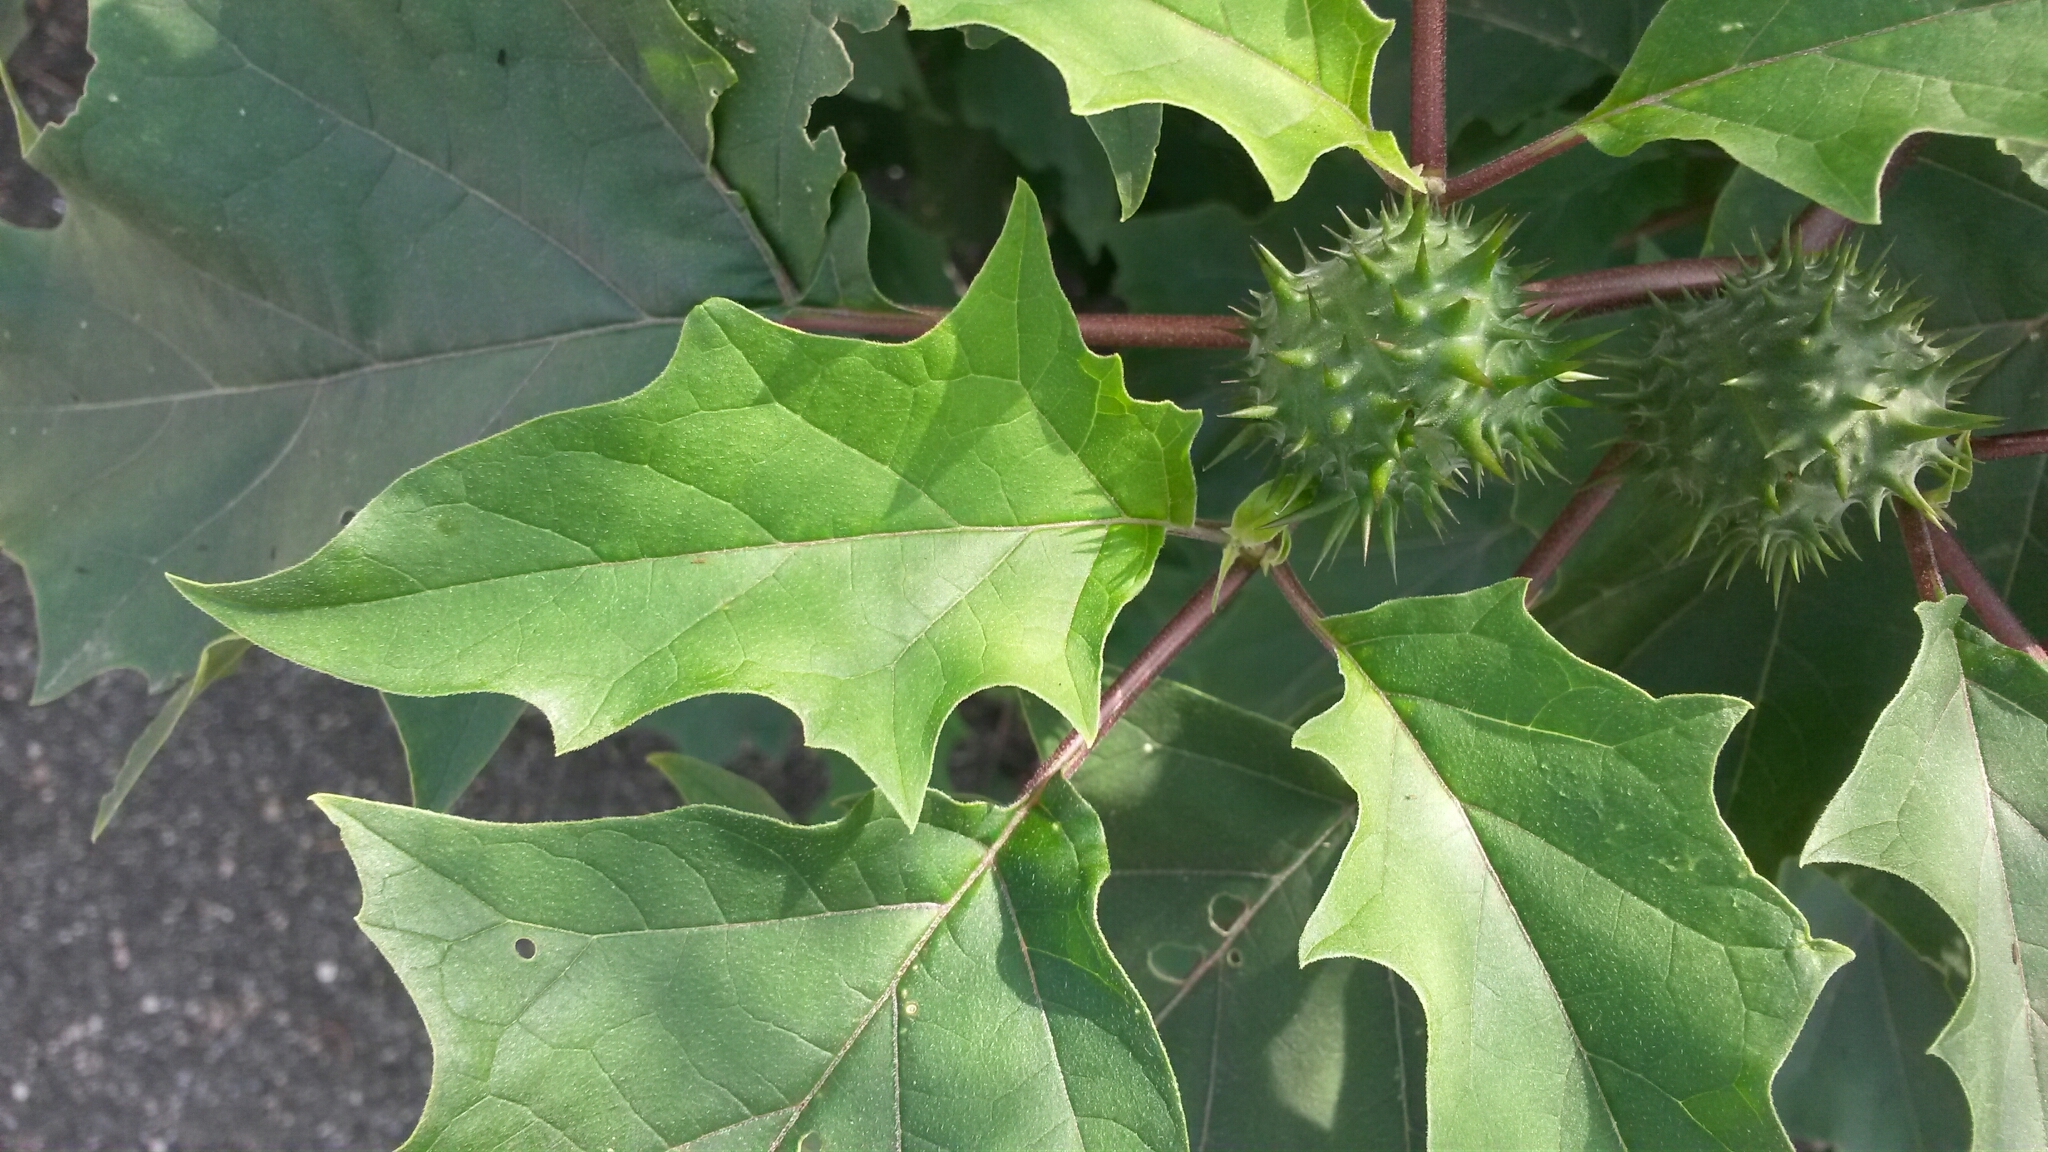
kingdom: Plantae
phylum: Tracheophyta
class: Magnoliopsida
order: Solanales
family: Solanaceae
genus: Datura
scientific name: Datura stramonium
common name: Thorn-apple
